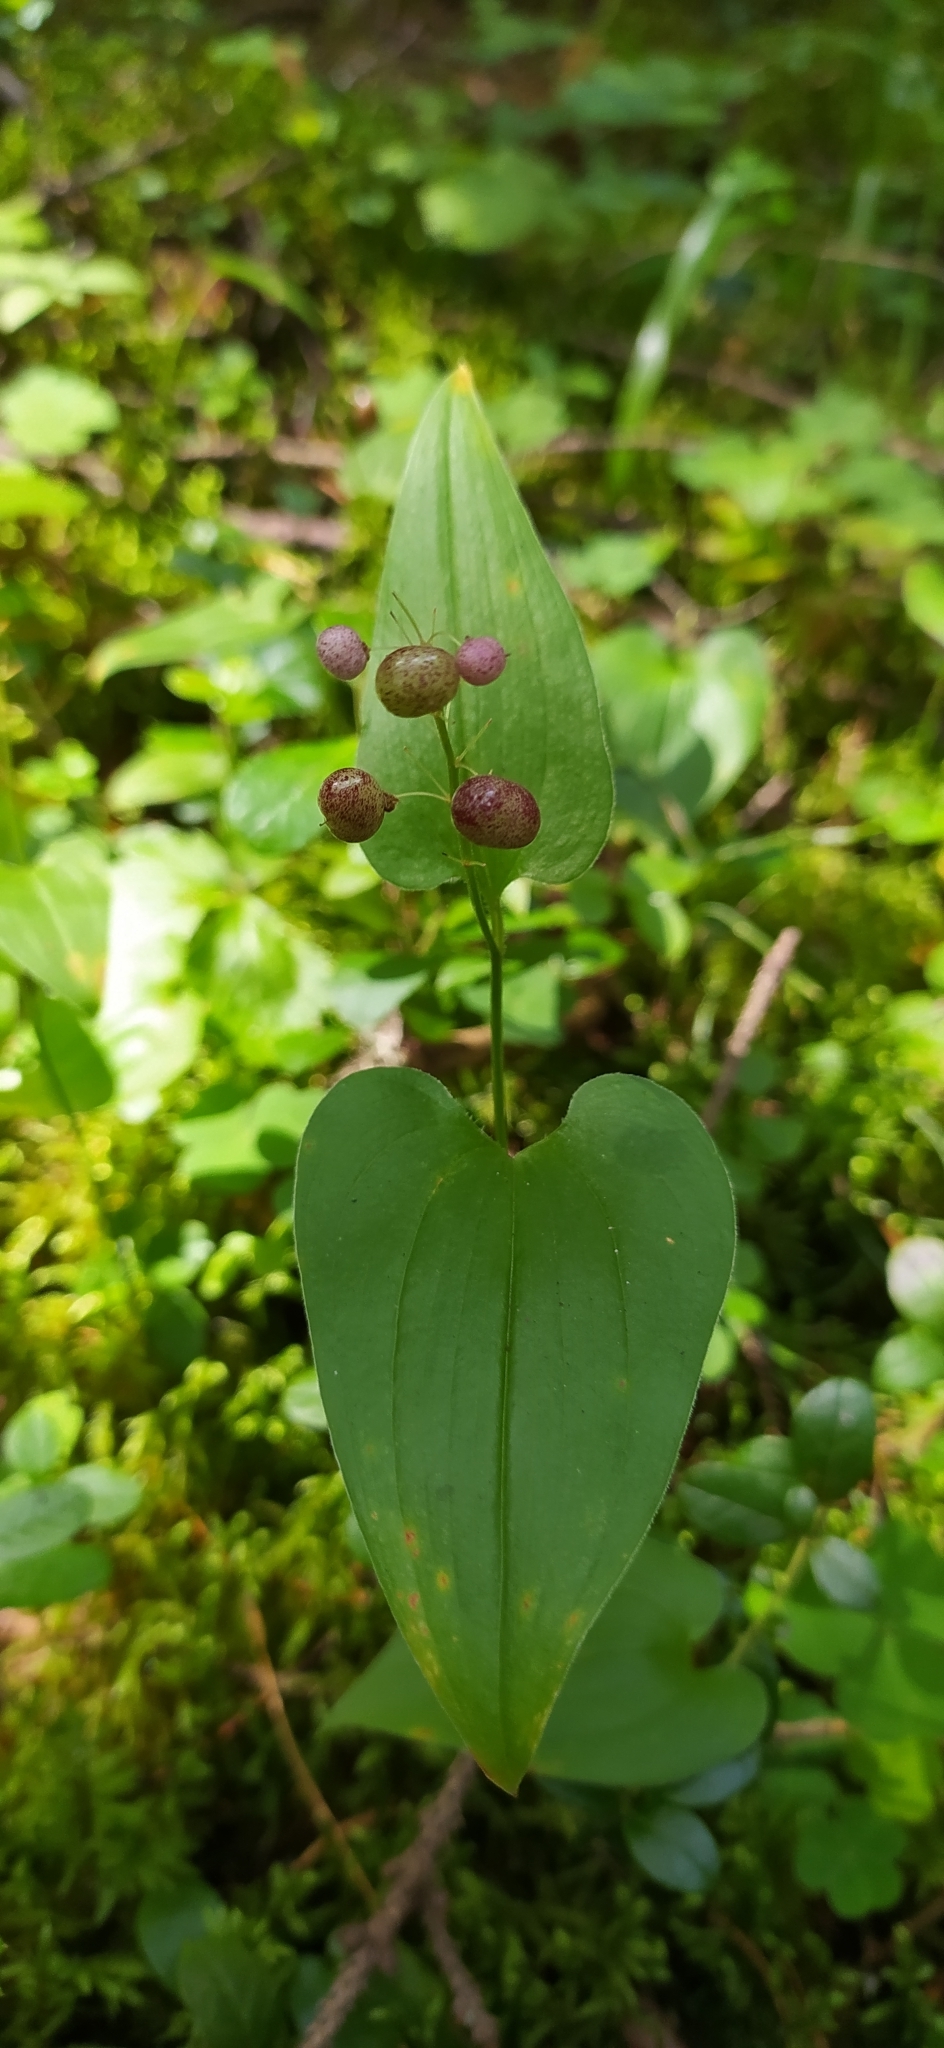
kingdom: Plantae
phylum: Tracheophyta
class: Liliopsida
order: Asparagales
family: Asparagaceae
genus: Maianthemum
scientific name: Maianthemum bifolium
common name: May lily
